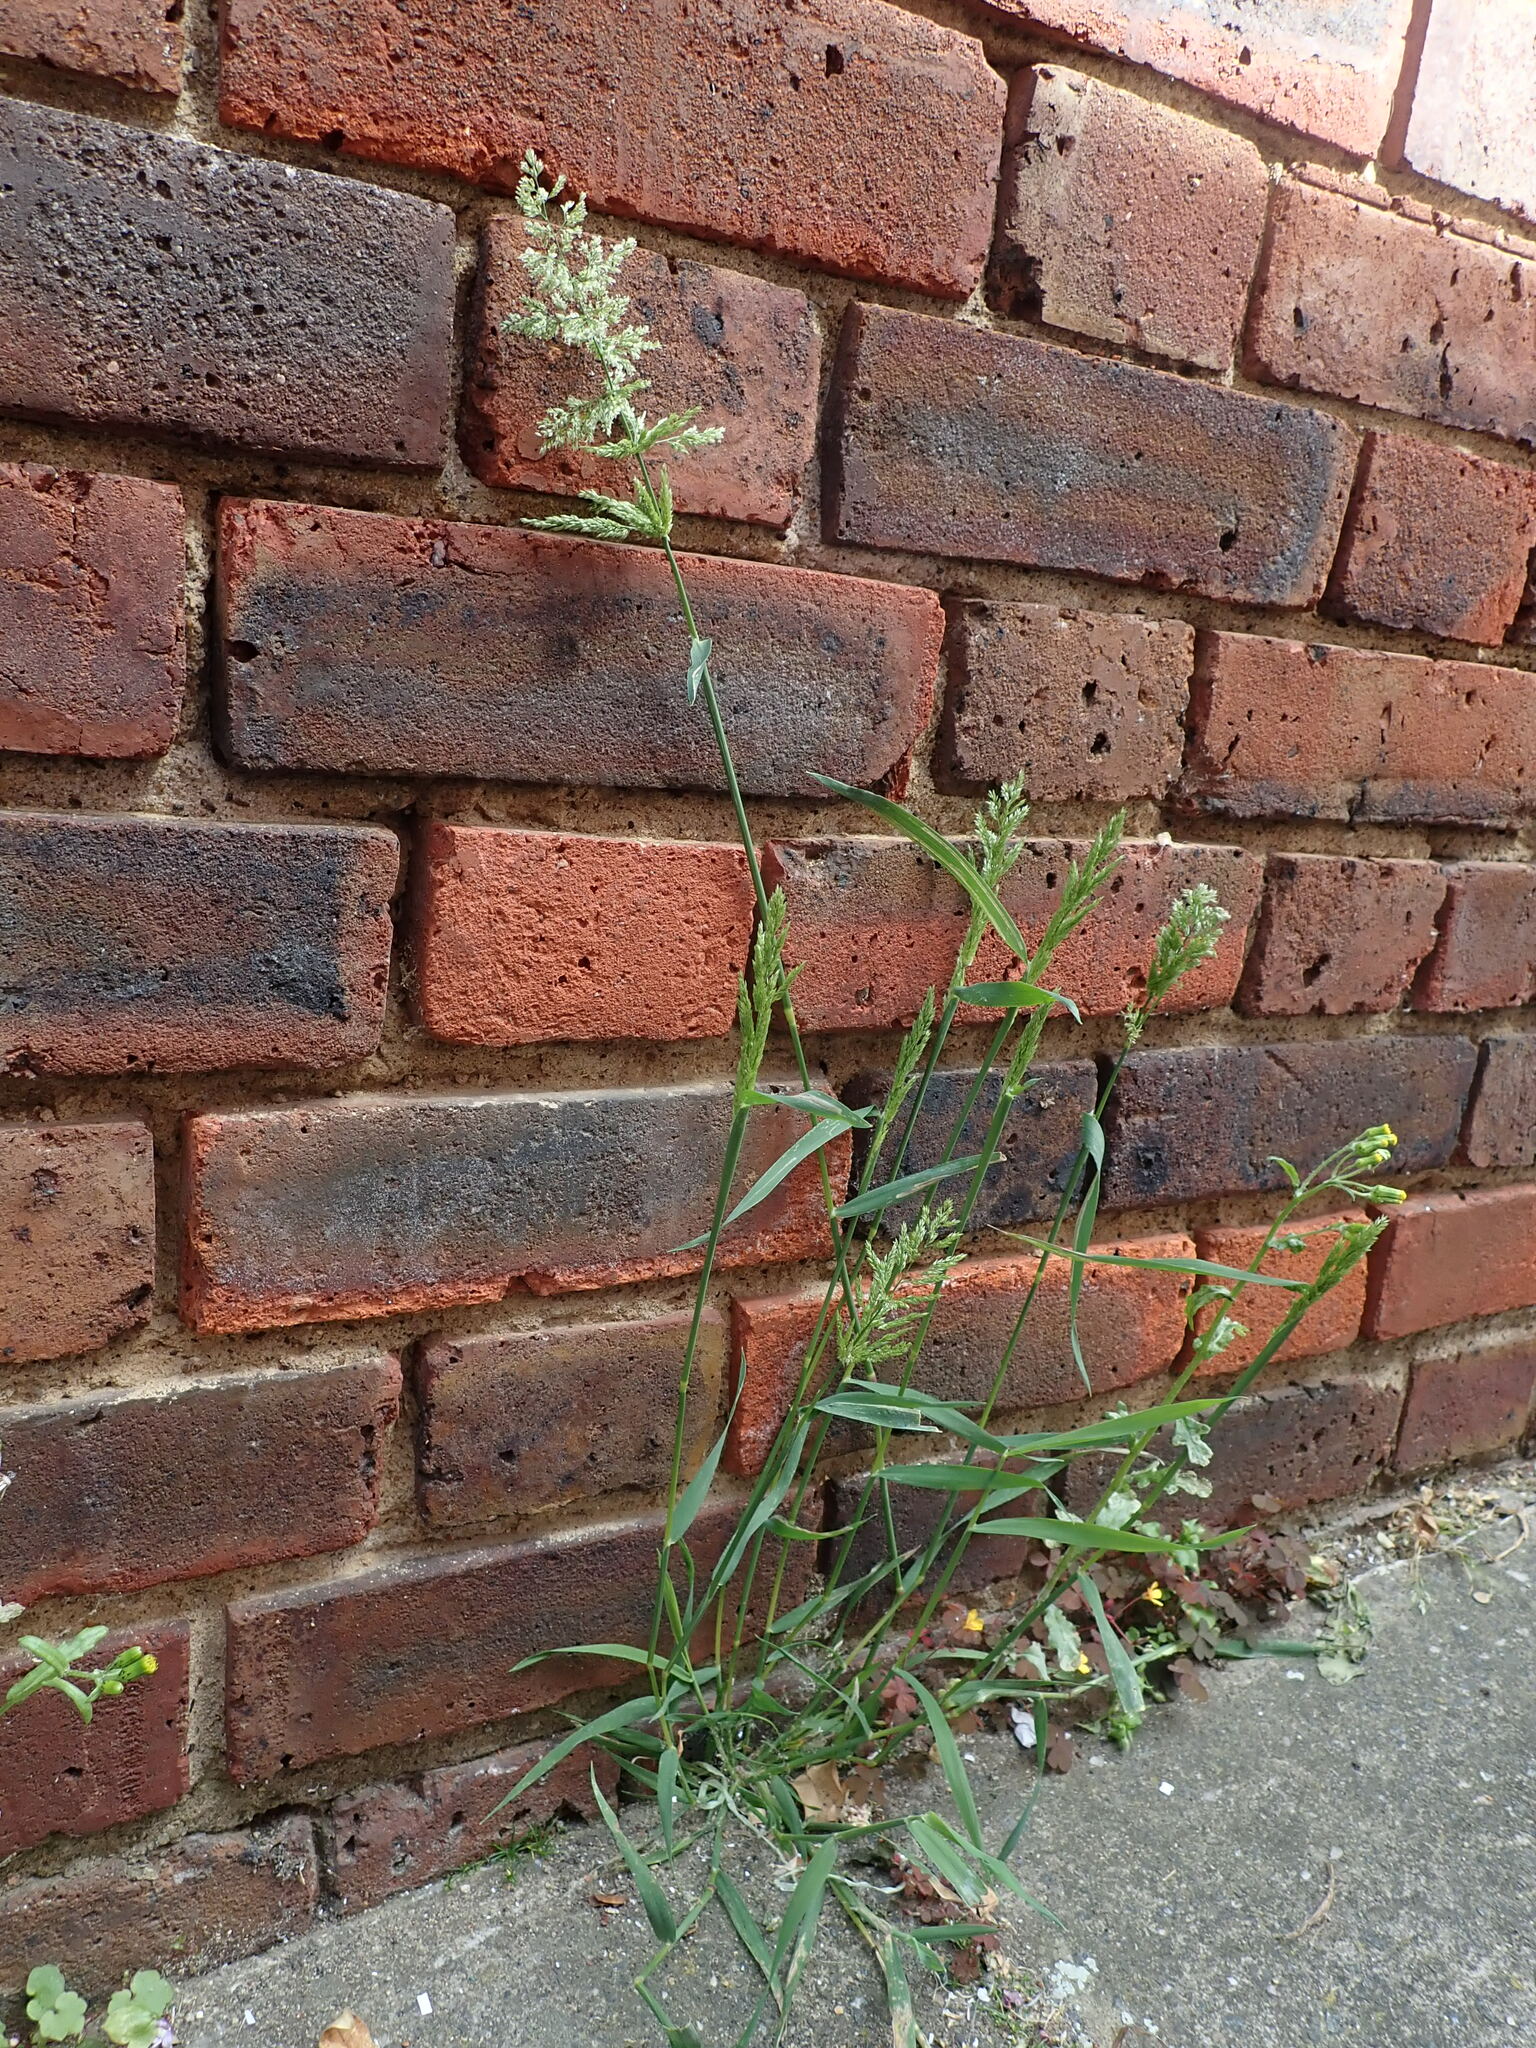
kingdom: Plantae
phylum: Tracheophyta
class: Liliopsida
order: Poales
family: Poaceae
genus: Polypogon
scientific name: Polypogon viridis
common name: Water bent
